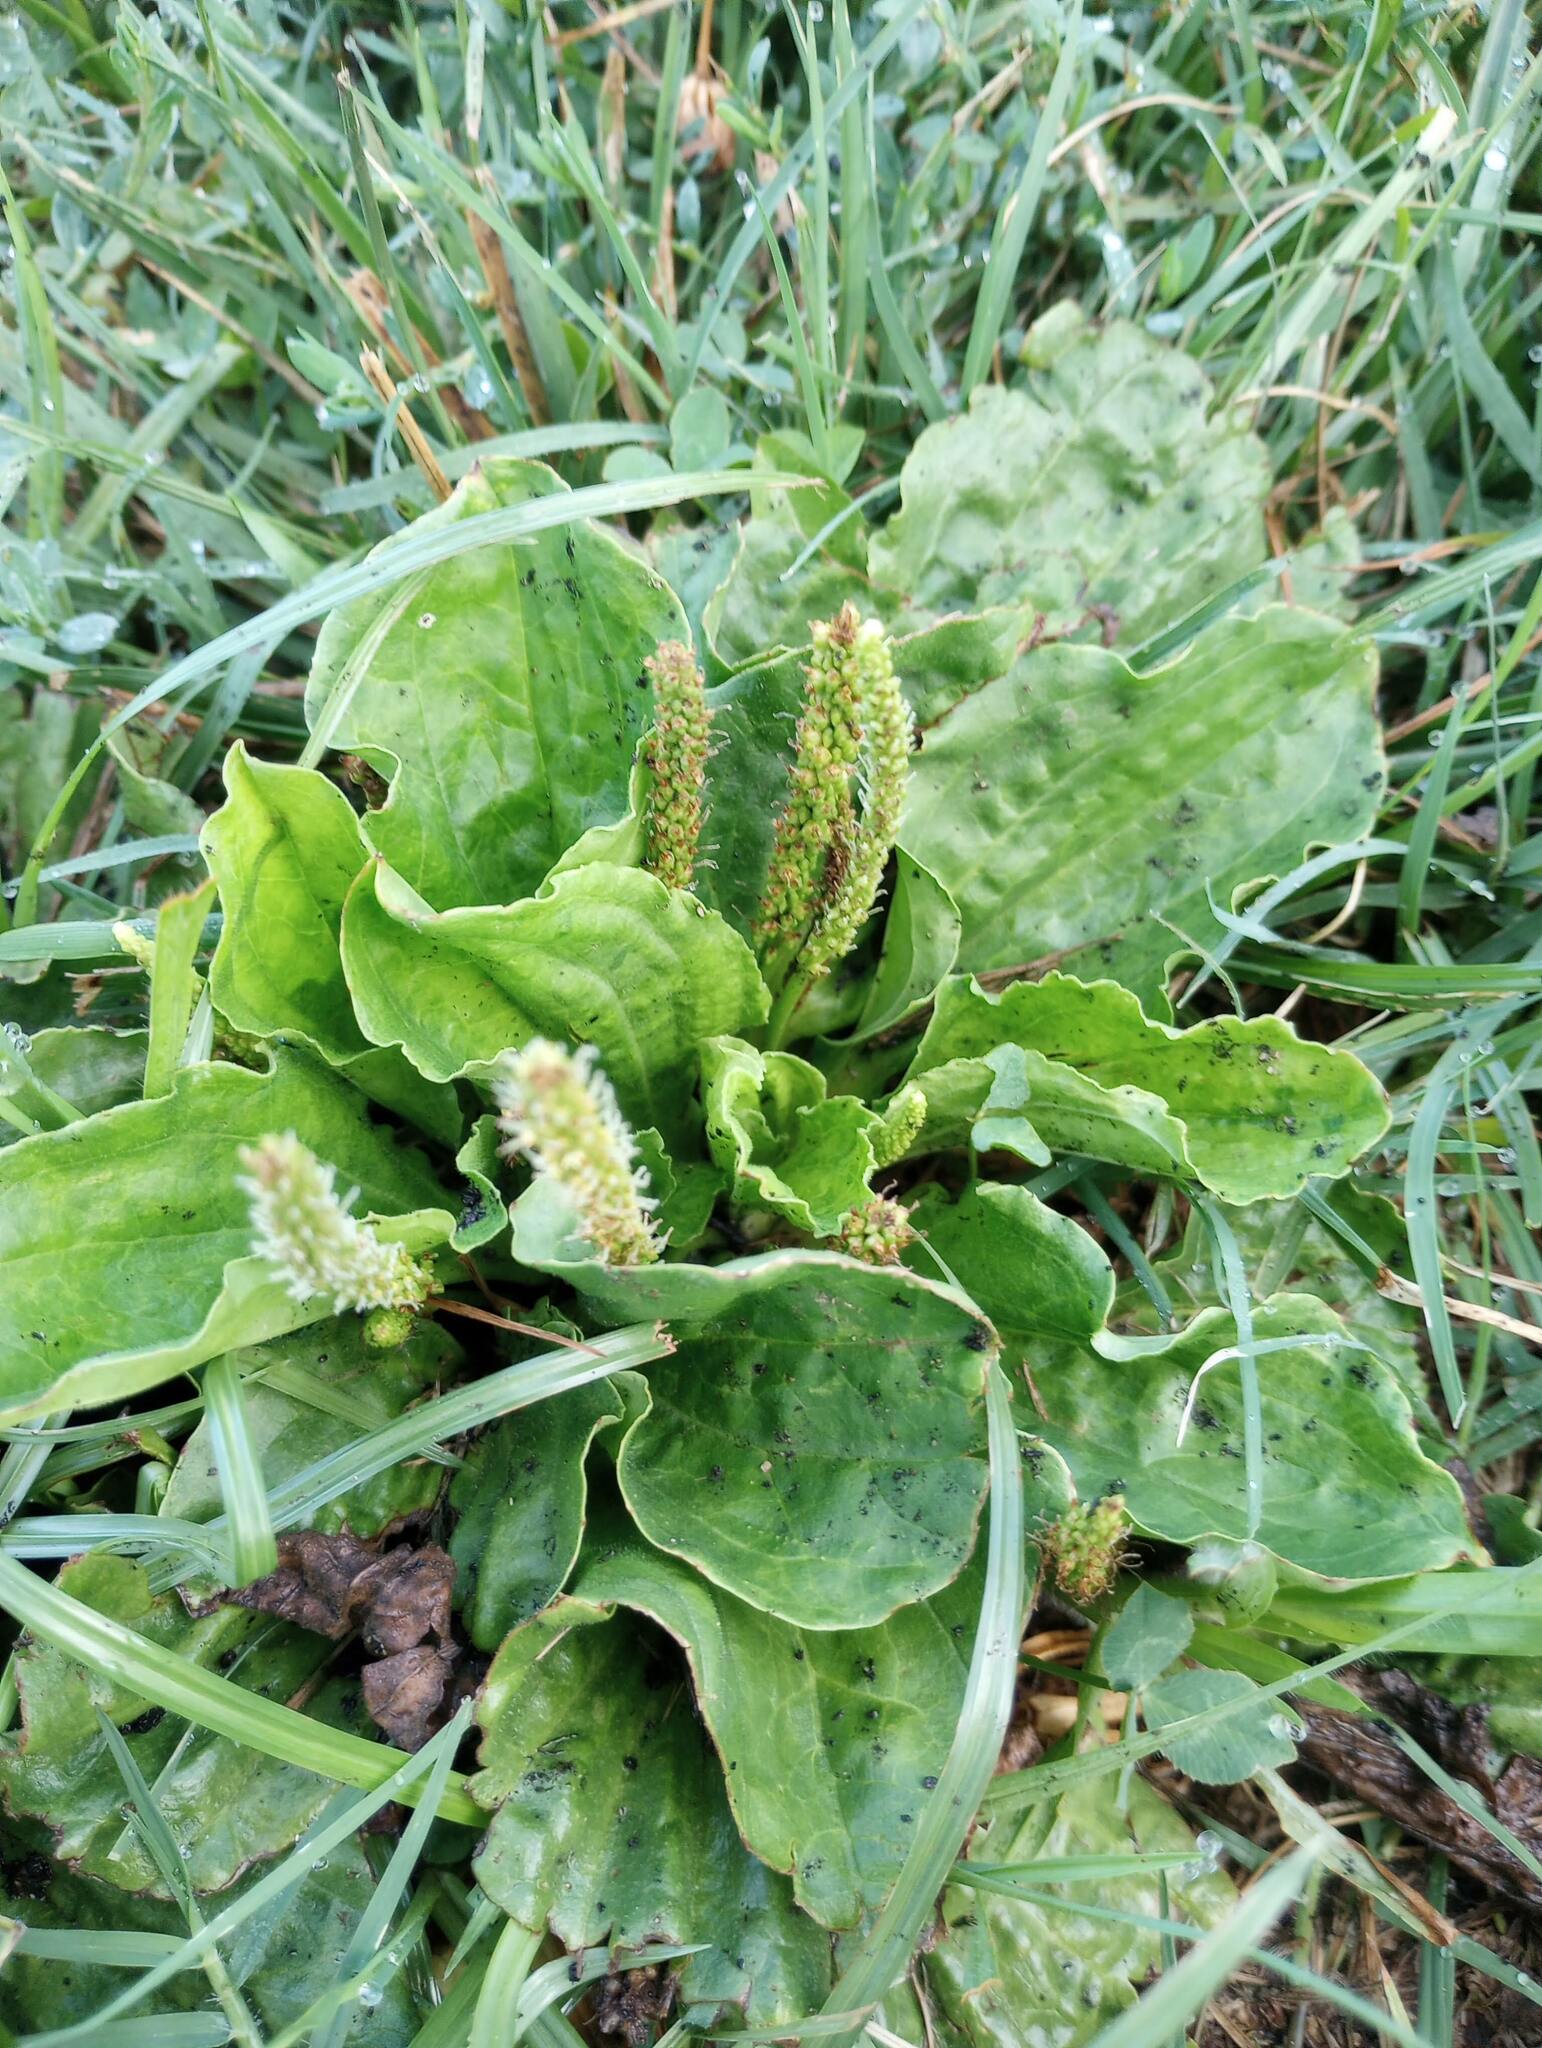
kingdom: Plantae
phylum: Tracheophyta
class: Magnoliopsida
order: Lamiales
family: Plantaginaceae
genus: Plantago
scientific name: Plantago major
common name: Common plantain
